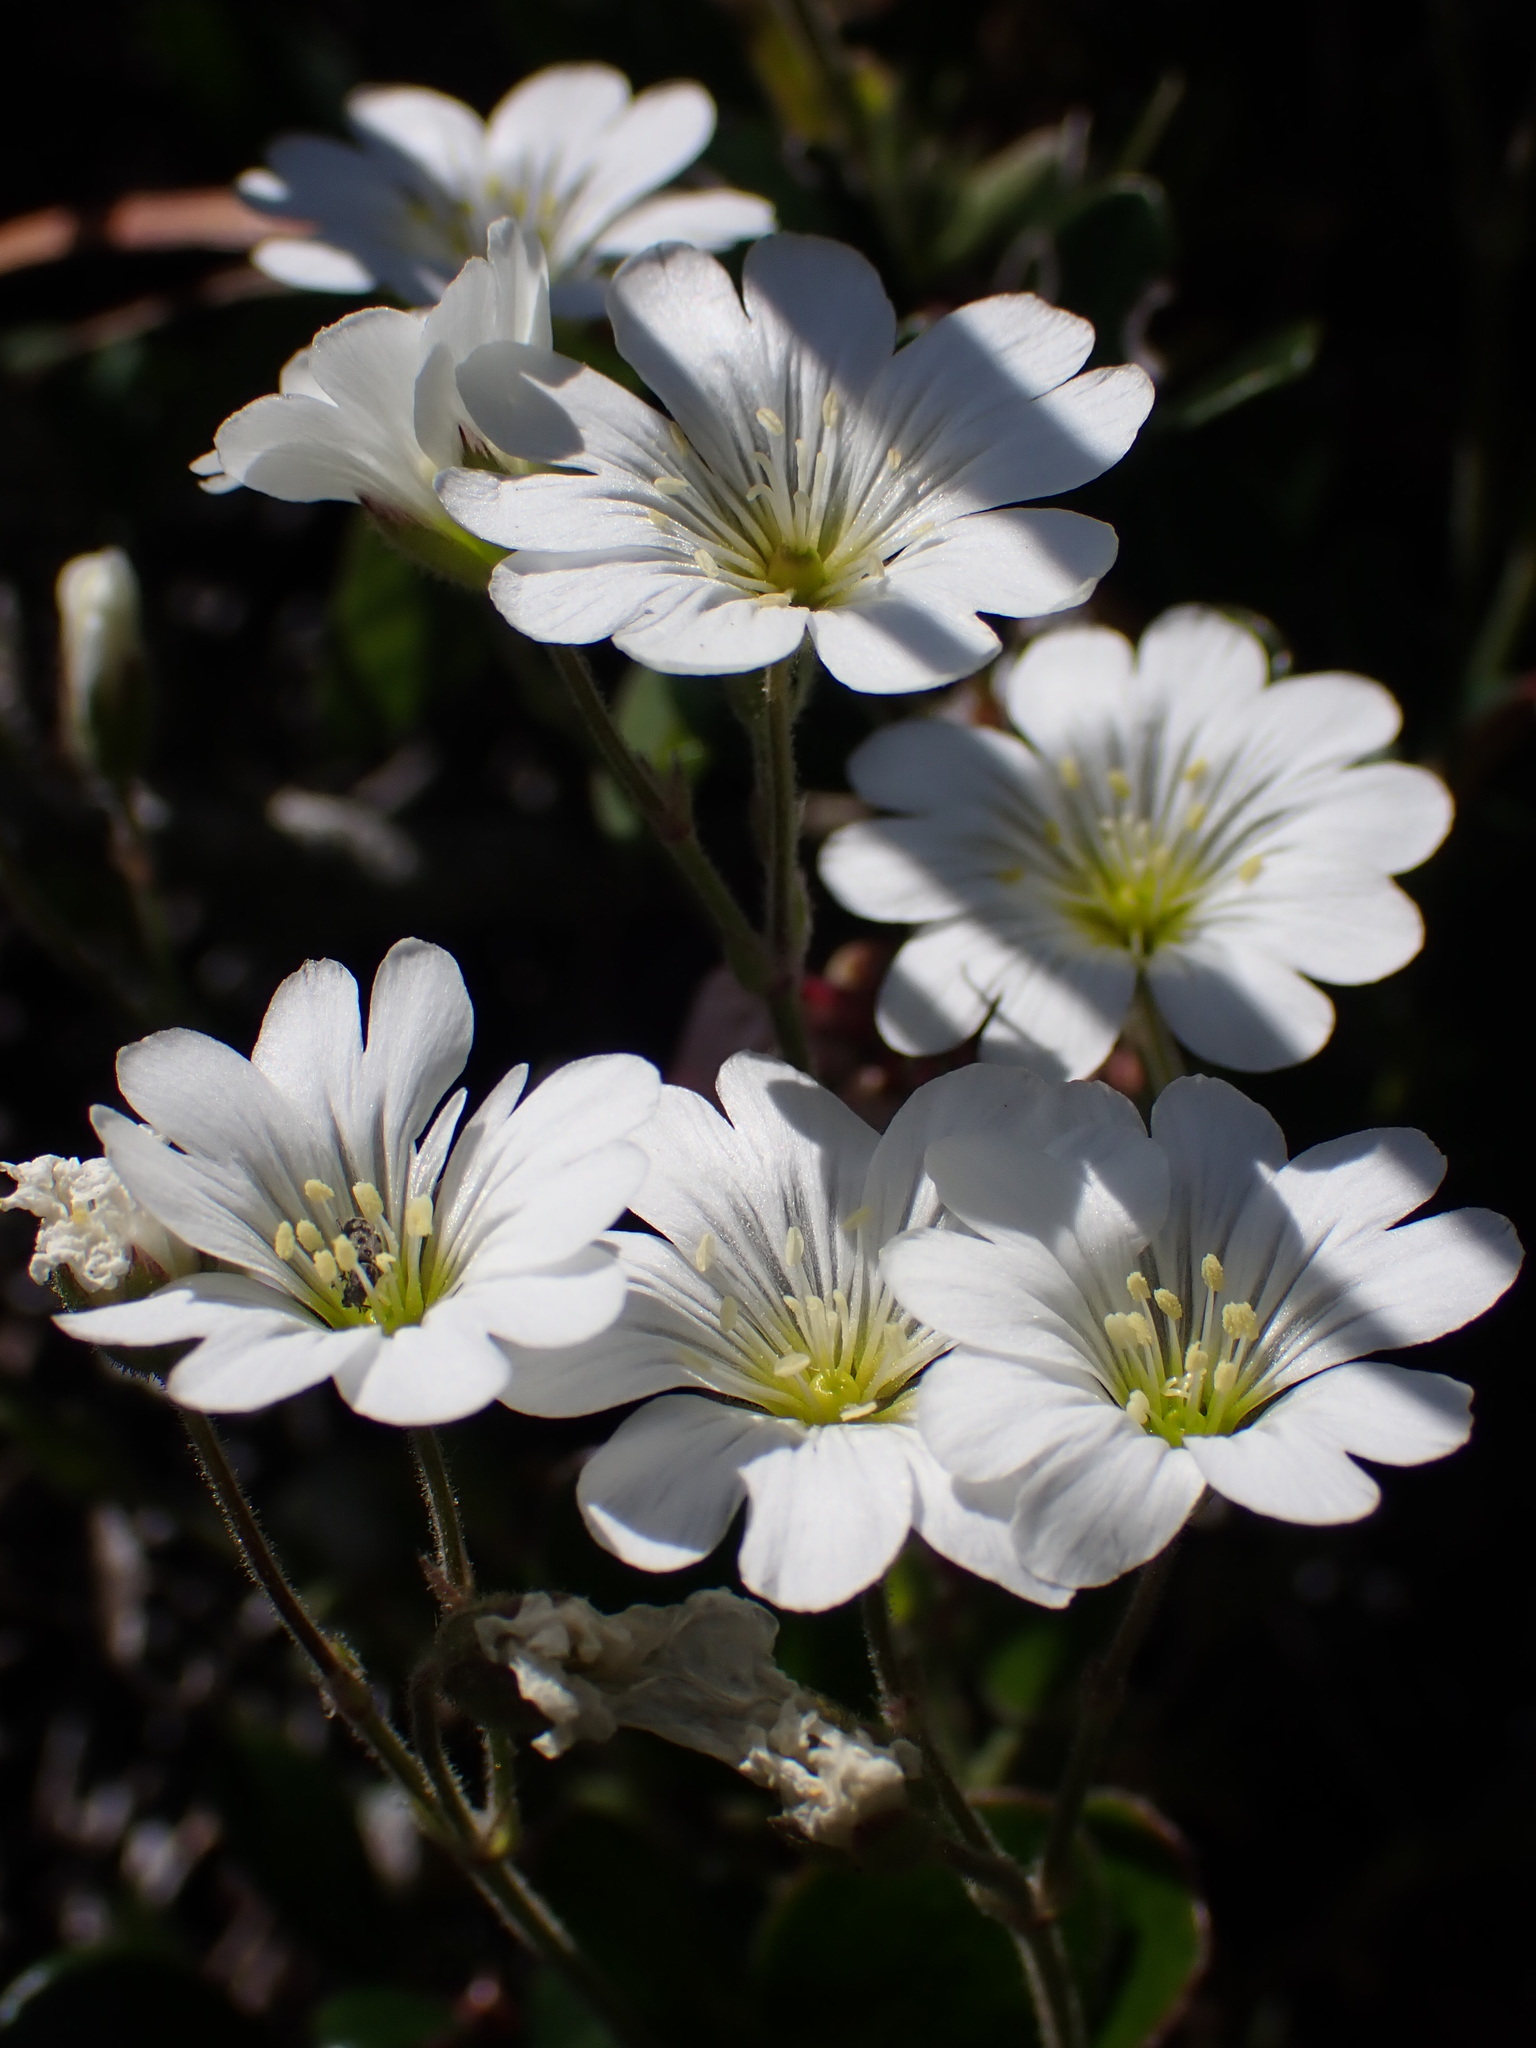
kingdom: Plantae
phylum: Tracheophyta
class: Magnoliopsida
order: Caryophyllales
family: Caryophyllaceae
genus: Cerastium
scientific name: Cerastium arvense
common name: Field mouse-ear
